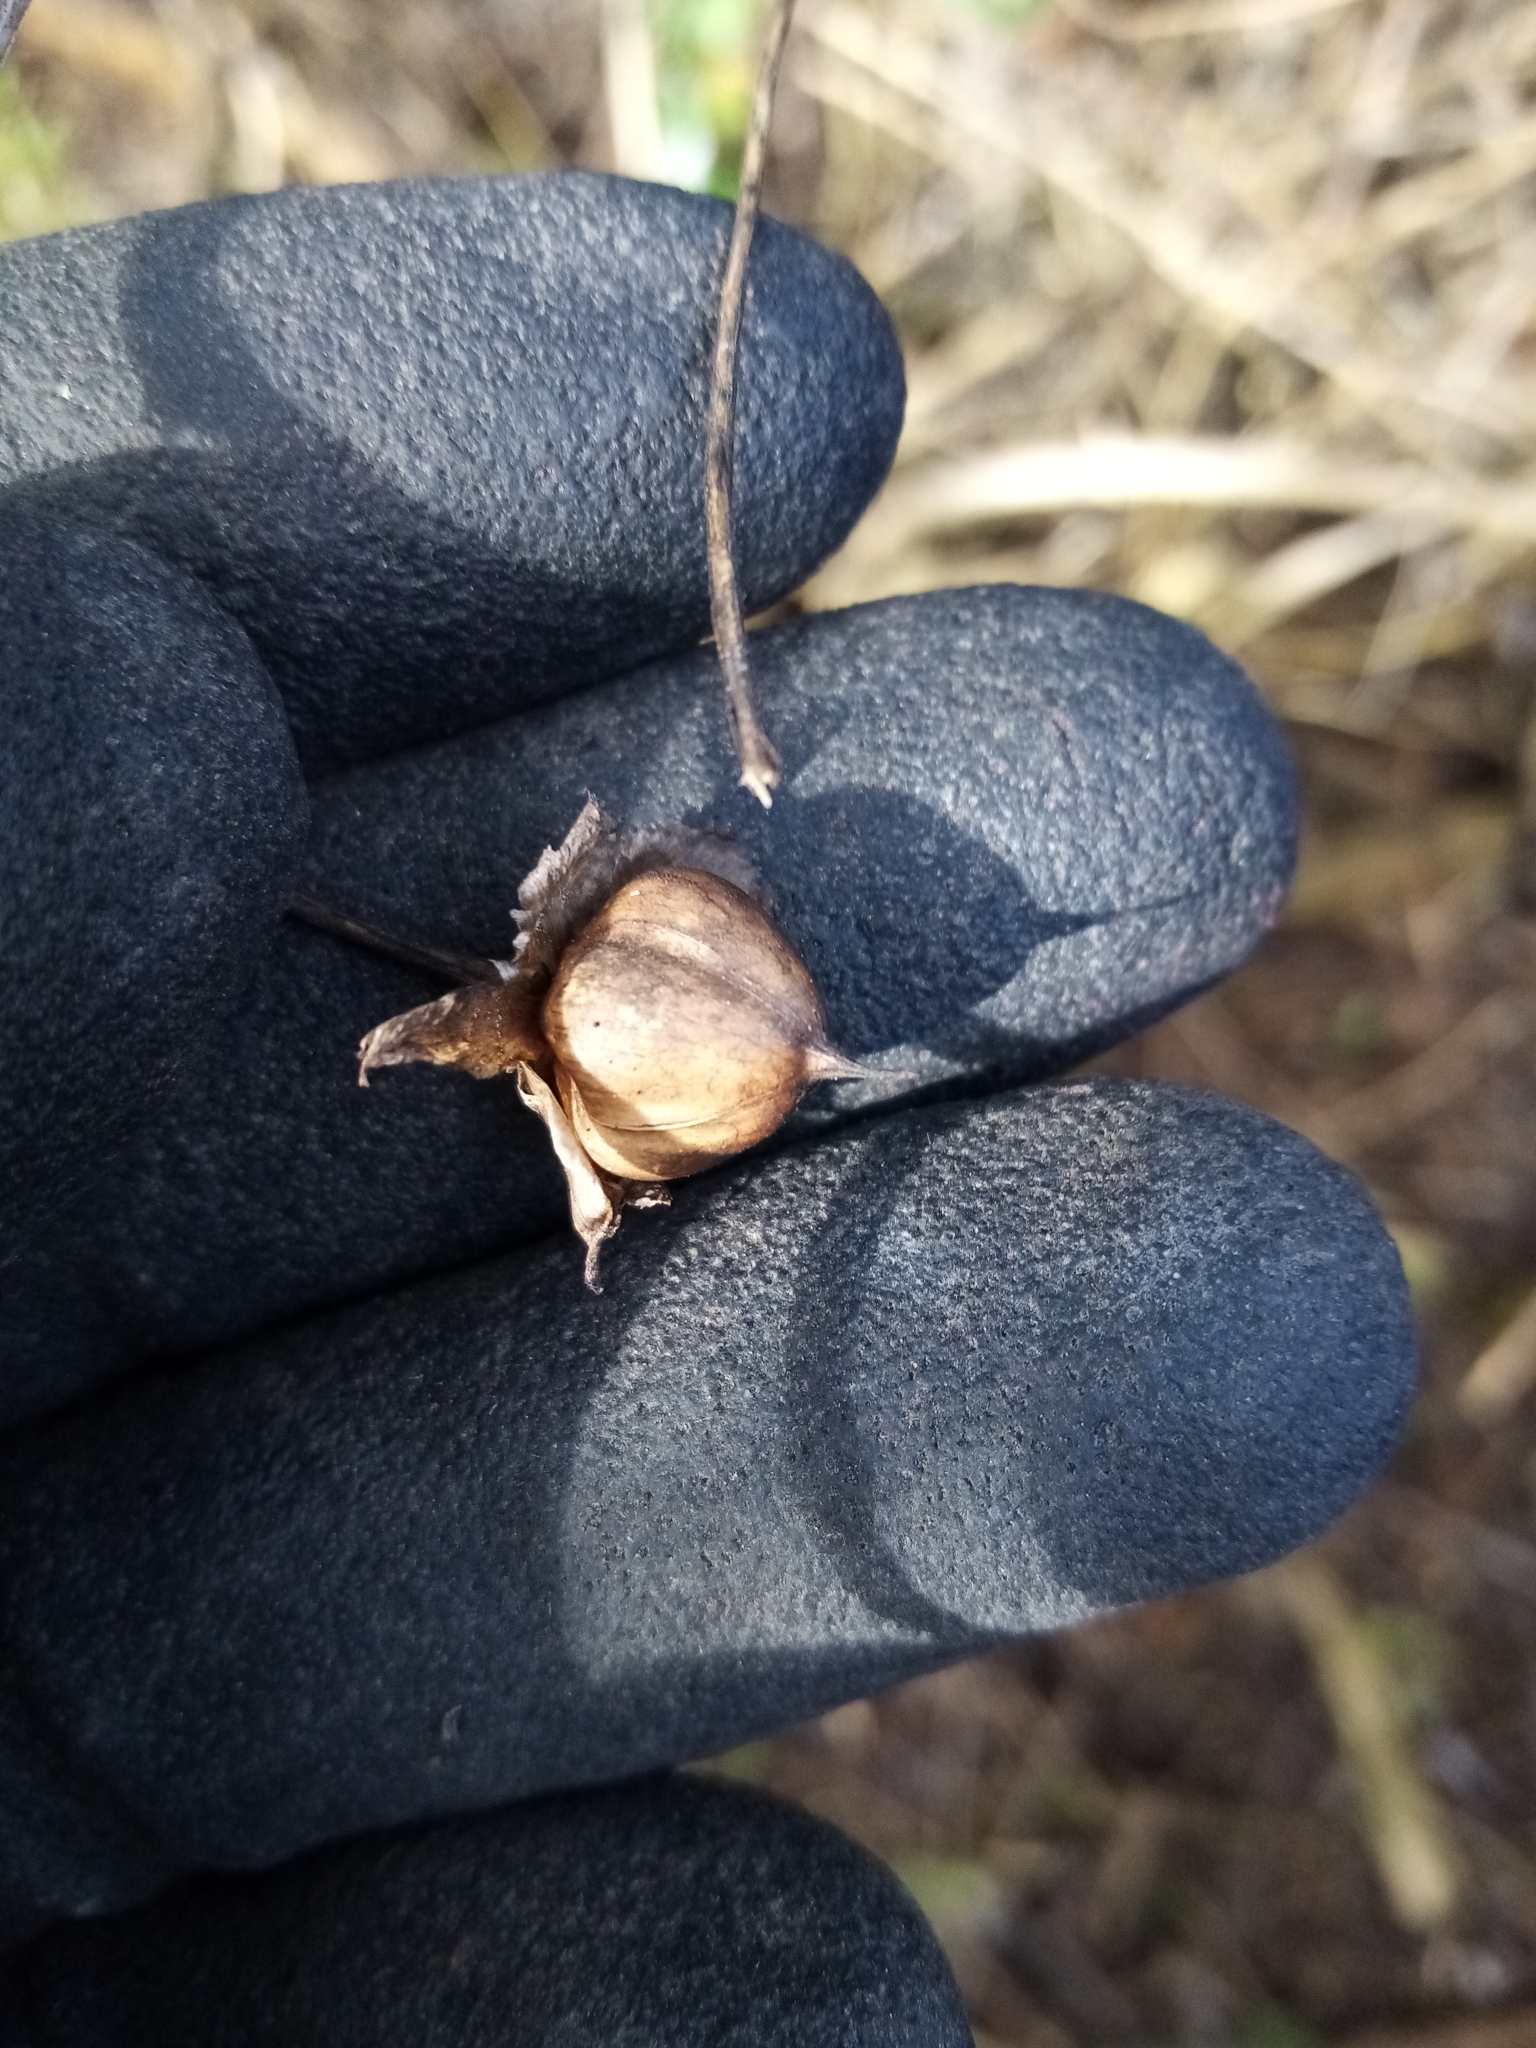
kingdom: Plantae
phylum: Tracheophyta
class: Magnoliopsida
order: Solanales
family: Convolvulaceae
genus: Calystegia
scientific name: Calystegia tuguriorum
